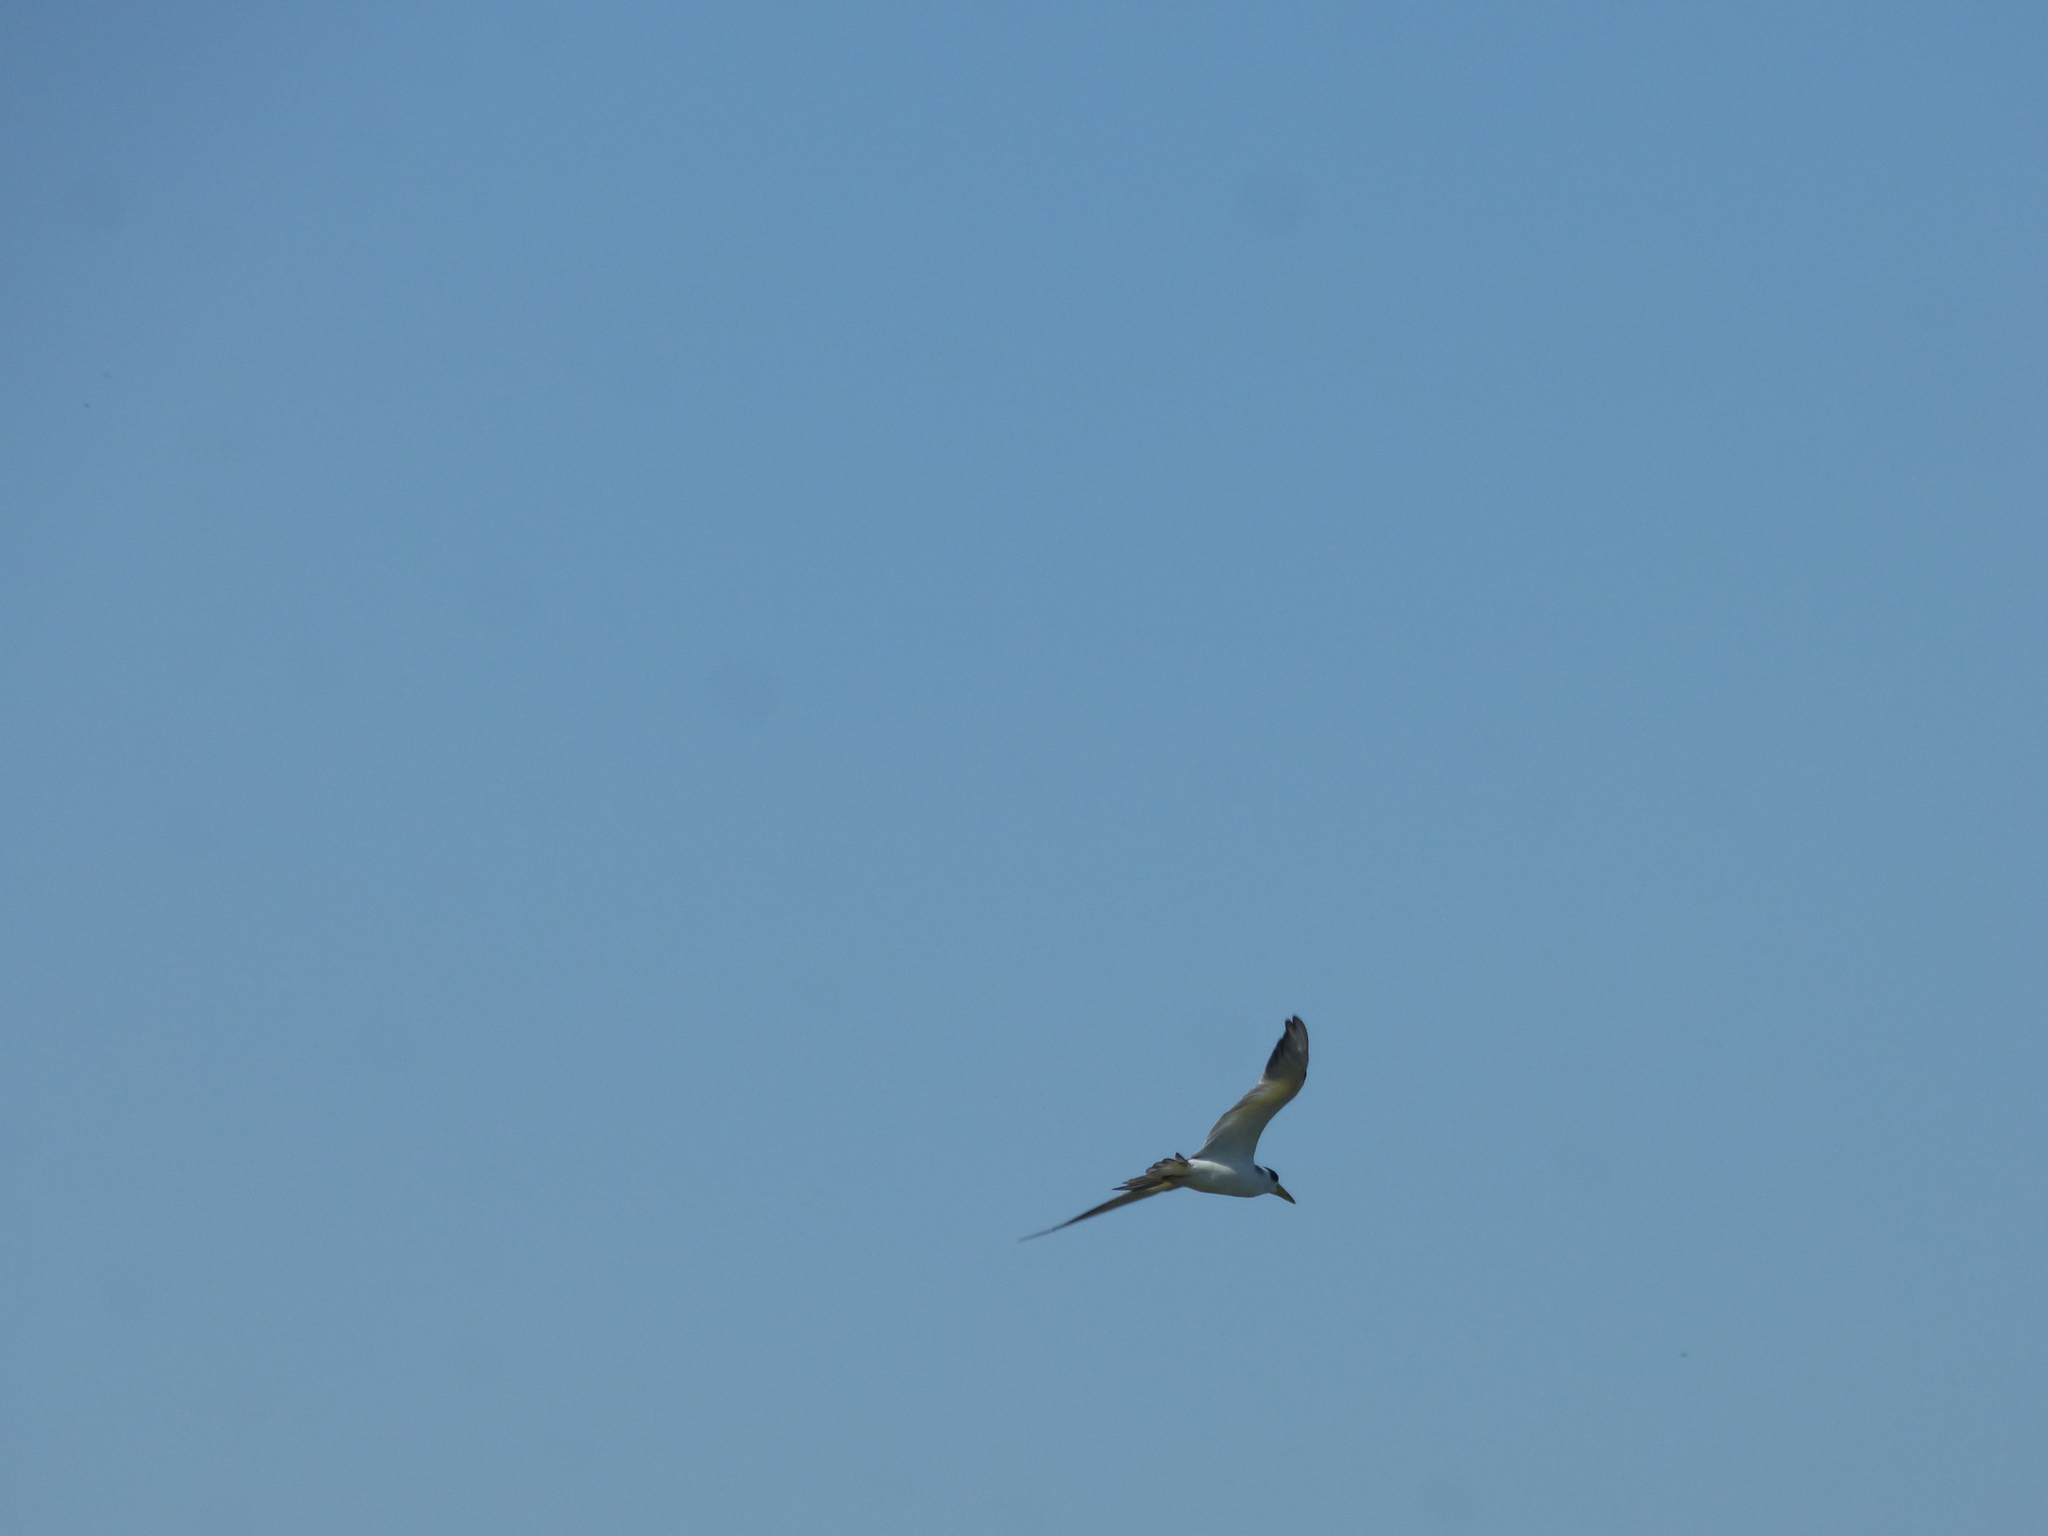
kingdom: Animalia
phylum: Chordata
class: Aves
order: Charadriiformes
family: Laridae
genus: Phaetusa
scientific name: Phaetusa simplex
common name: Large-billed tern
